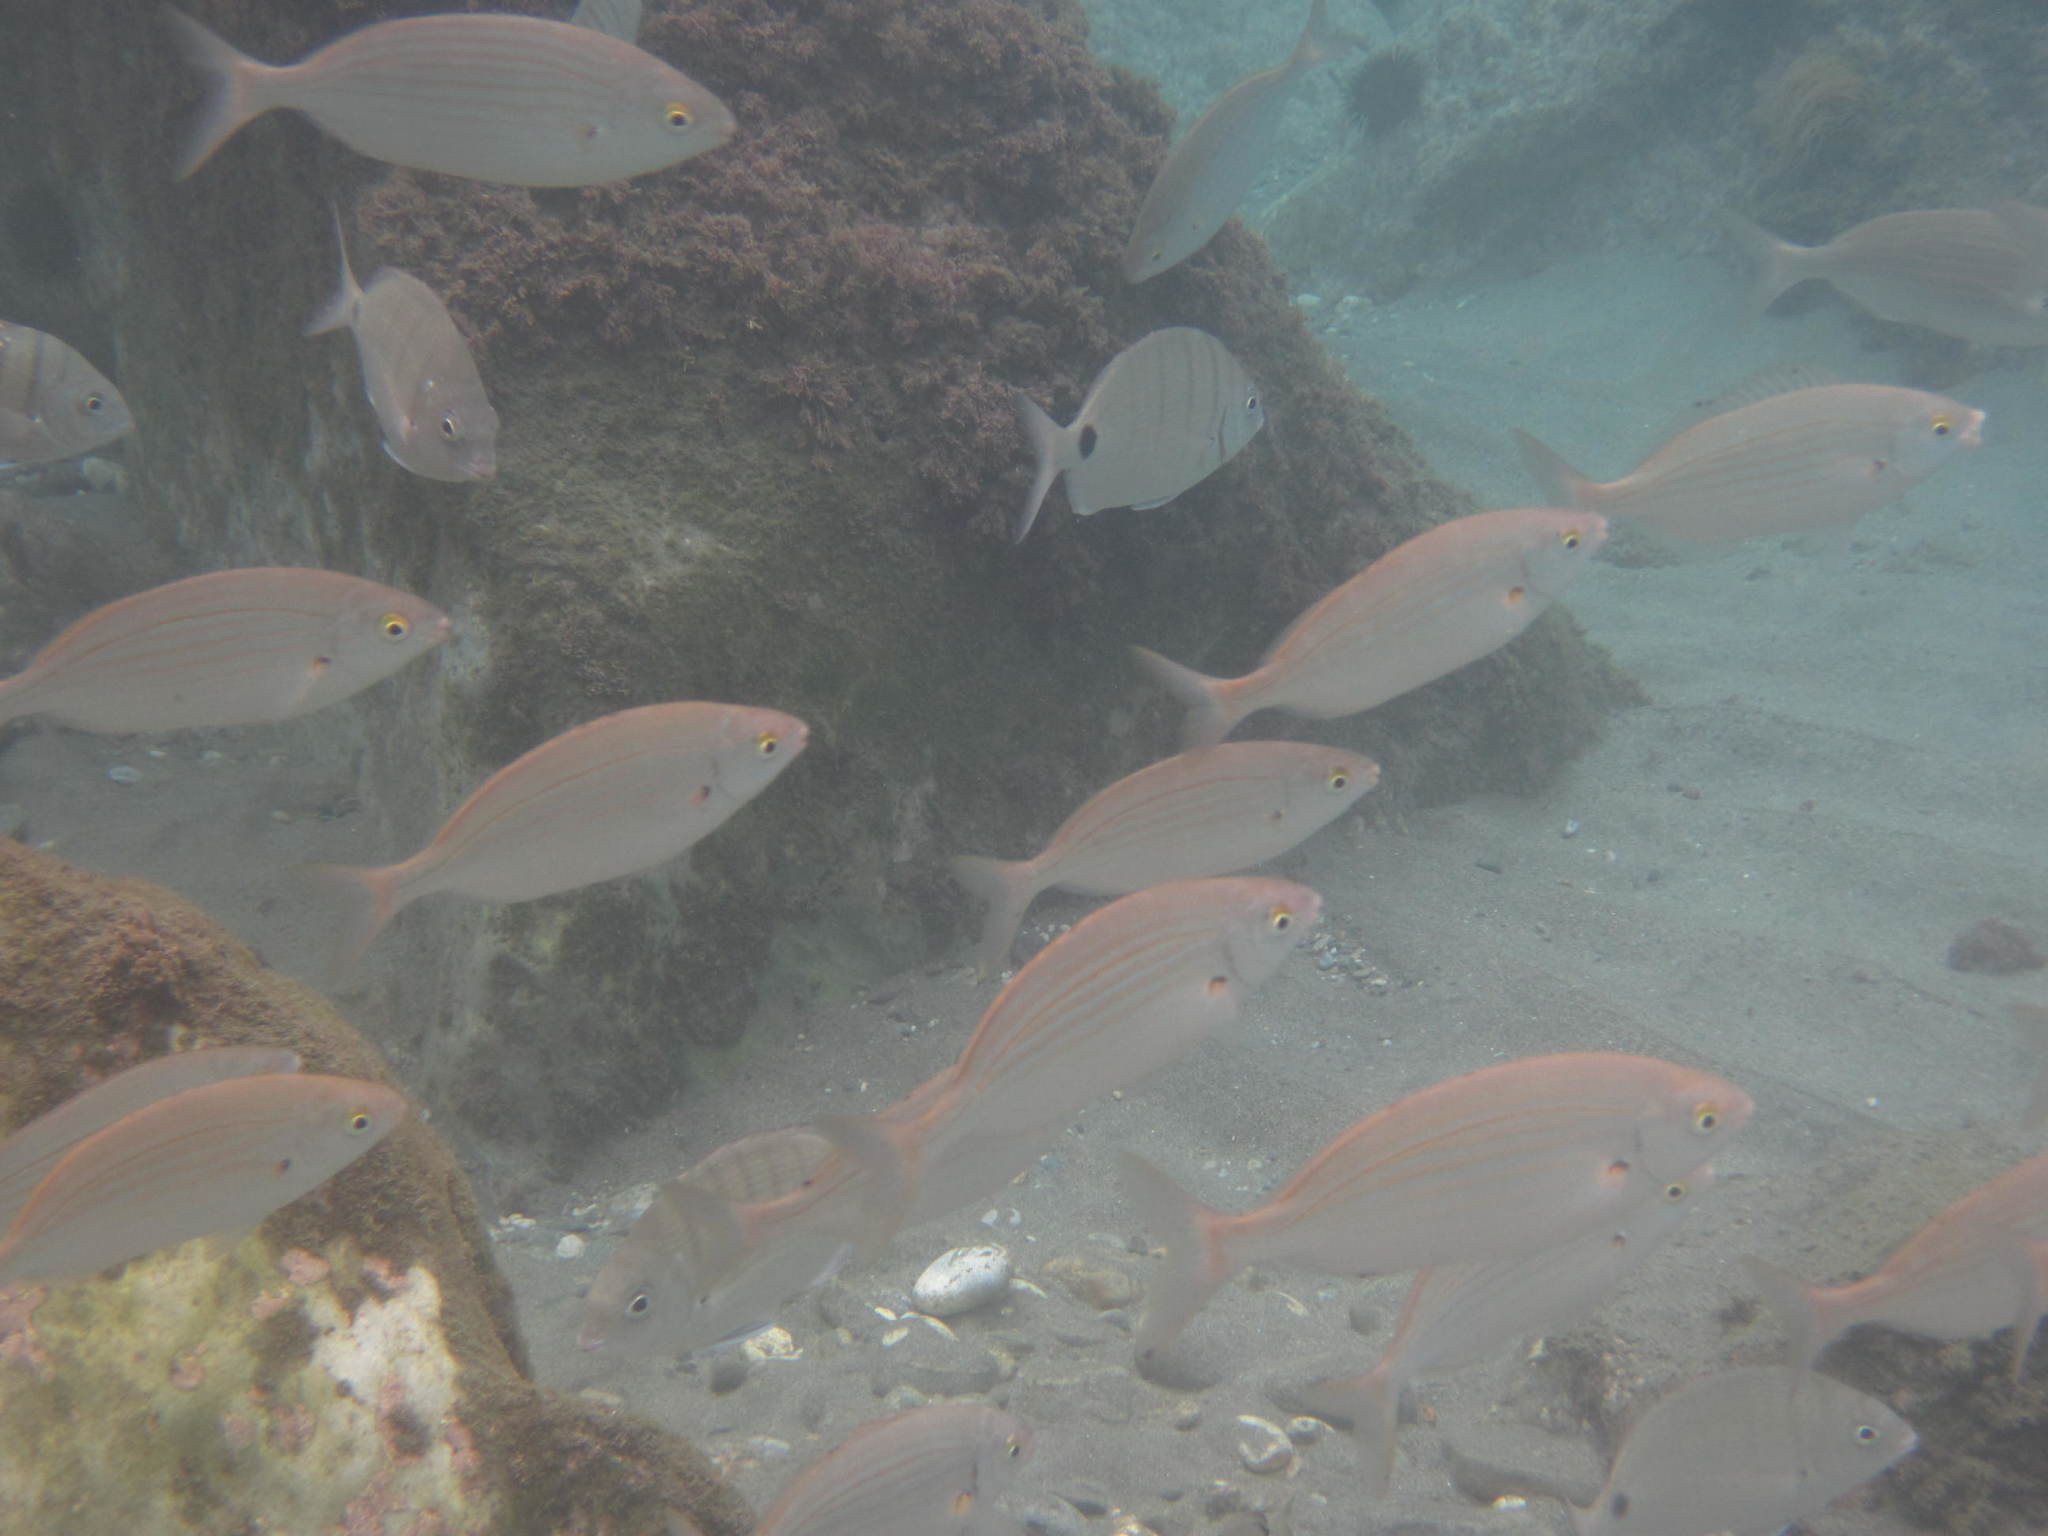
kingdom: Animalia
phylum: Chordata
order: Perciformes
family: Sparidae
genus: Sarpa
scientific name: Sarpa salpa
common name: Salema
